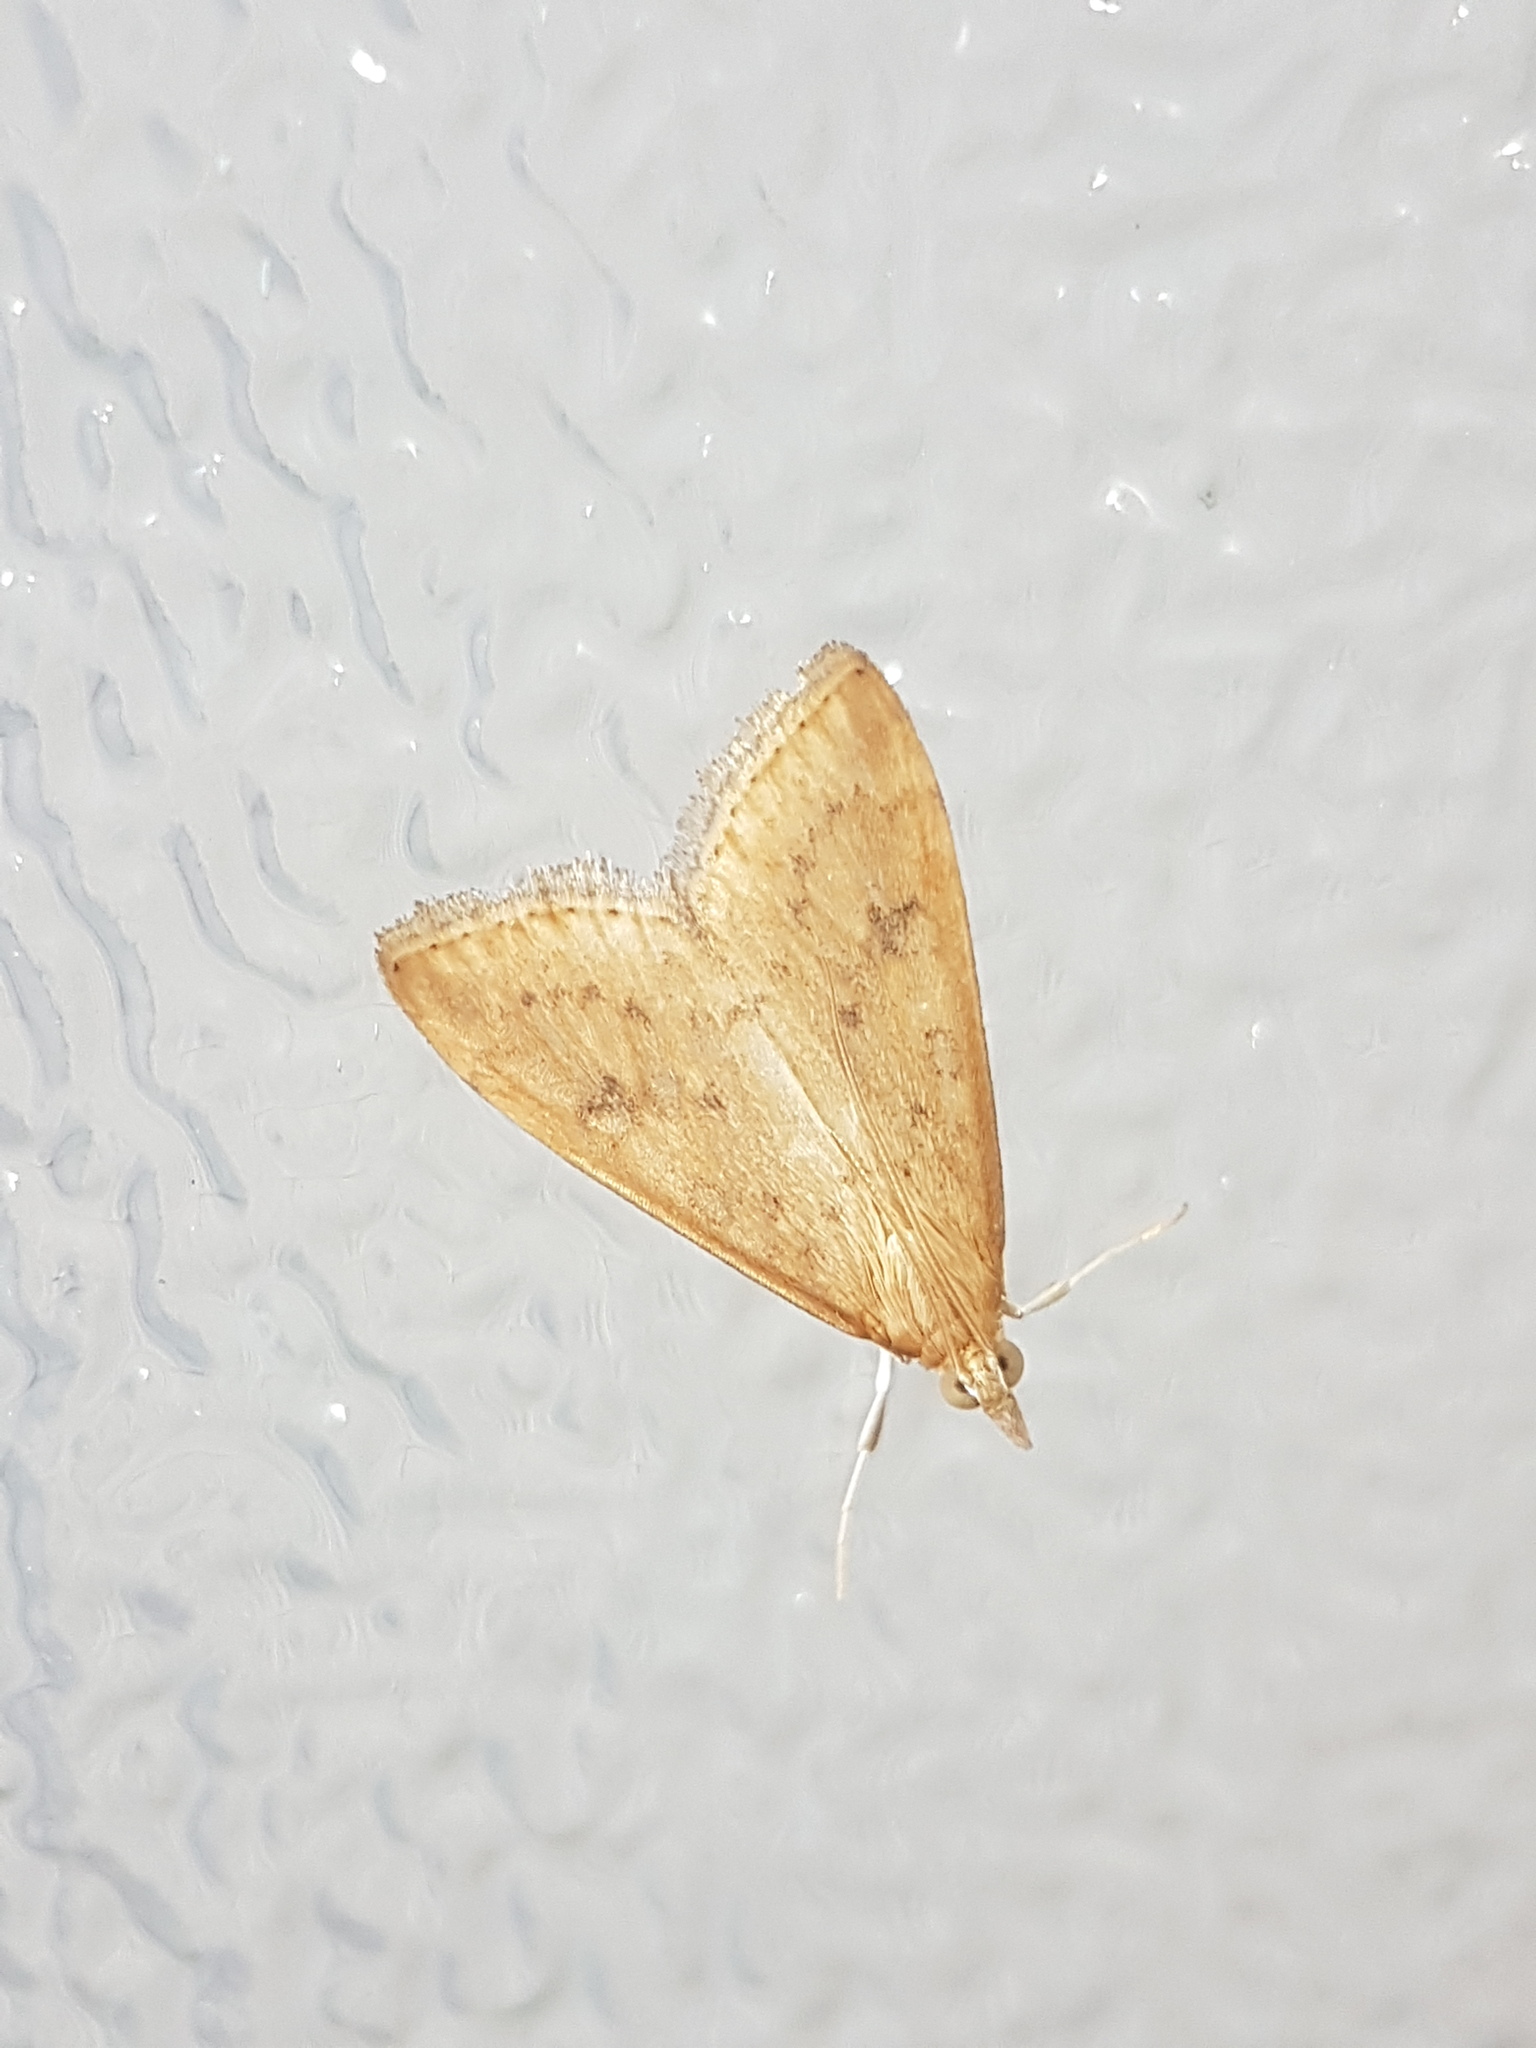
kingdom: Animalia
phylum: Arthropoda
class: Insecta
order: Lepidoptera
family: Crambidae
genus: Udea
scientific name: Udea ferrugalis
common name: Rusty dot
